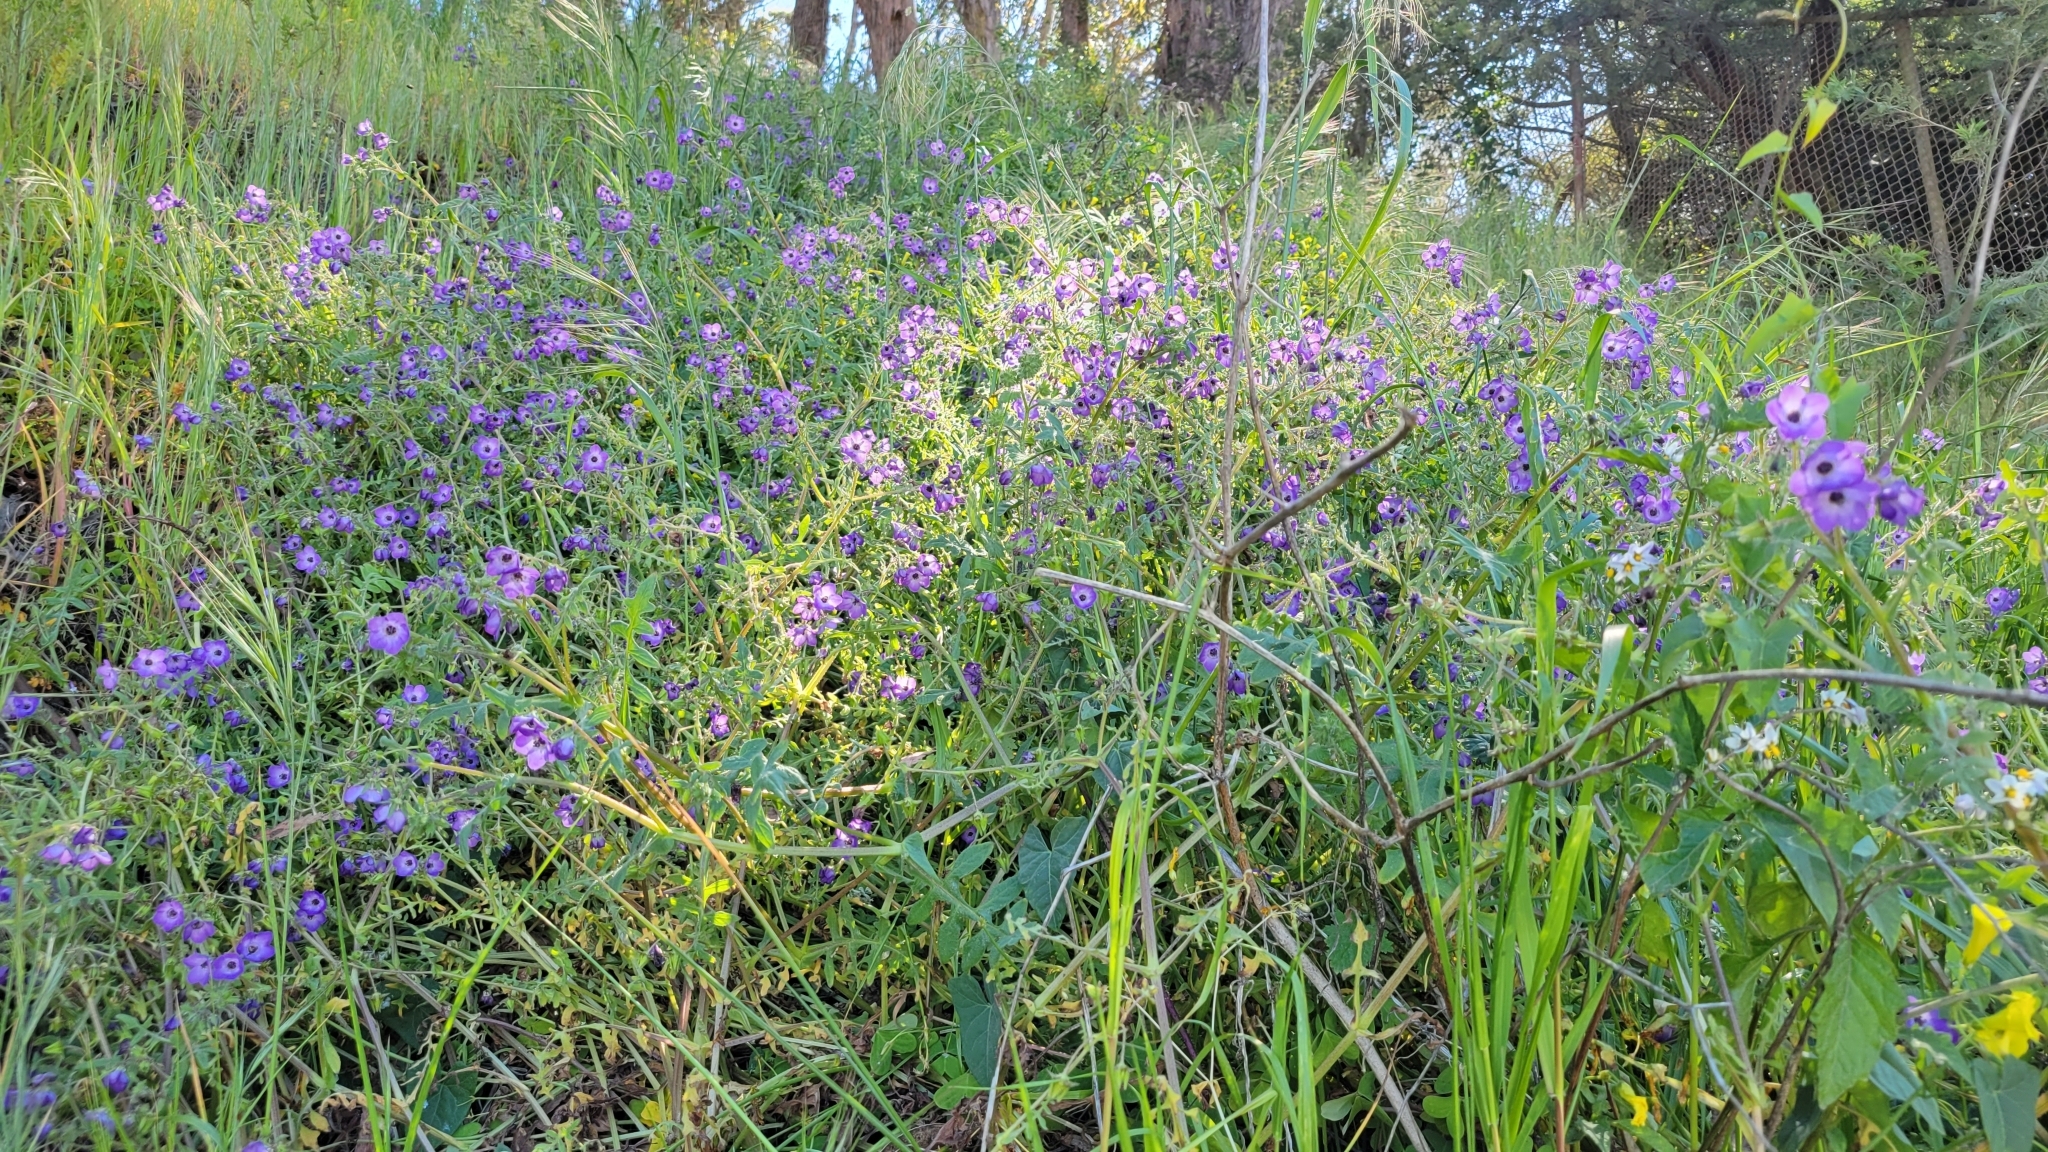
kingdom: Plantae
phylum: Tracheophyta
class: Magnoliopsida
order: Boraginales
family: Hydrophyllaceae
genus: Pholistoma
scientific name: Pholistoma auritum
